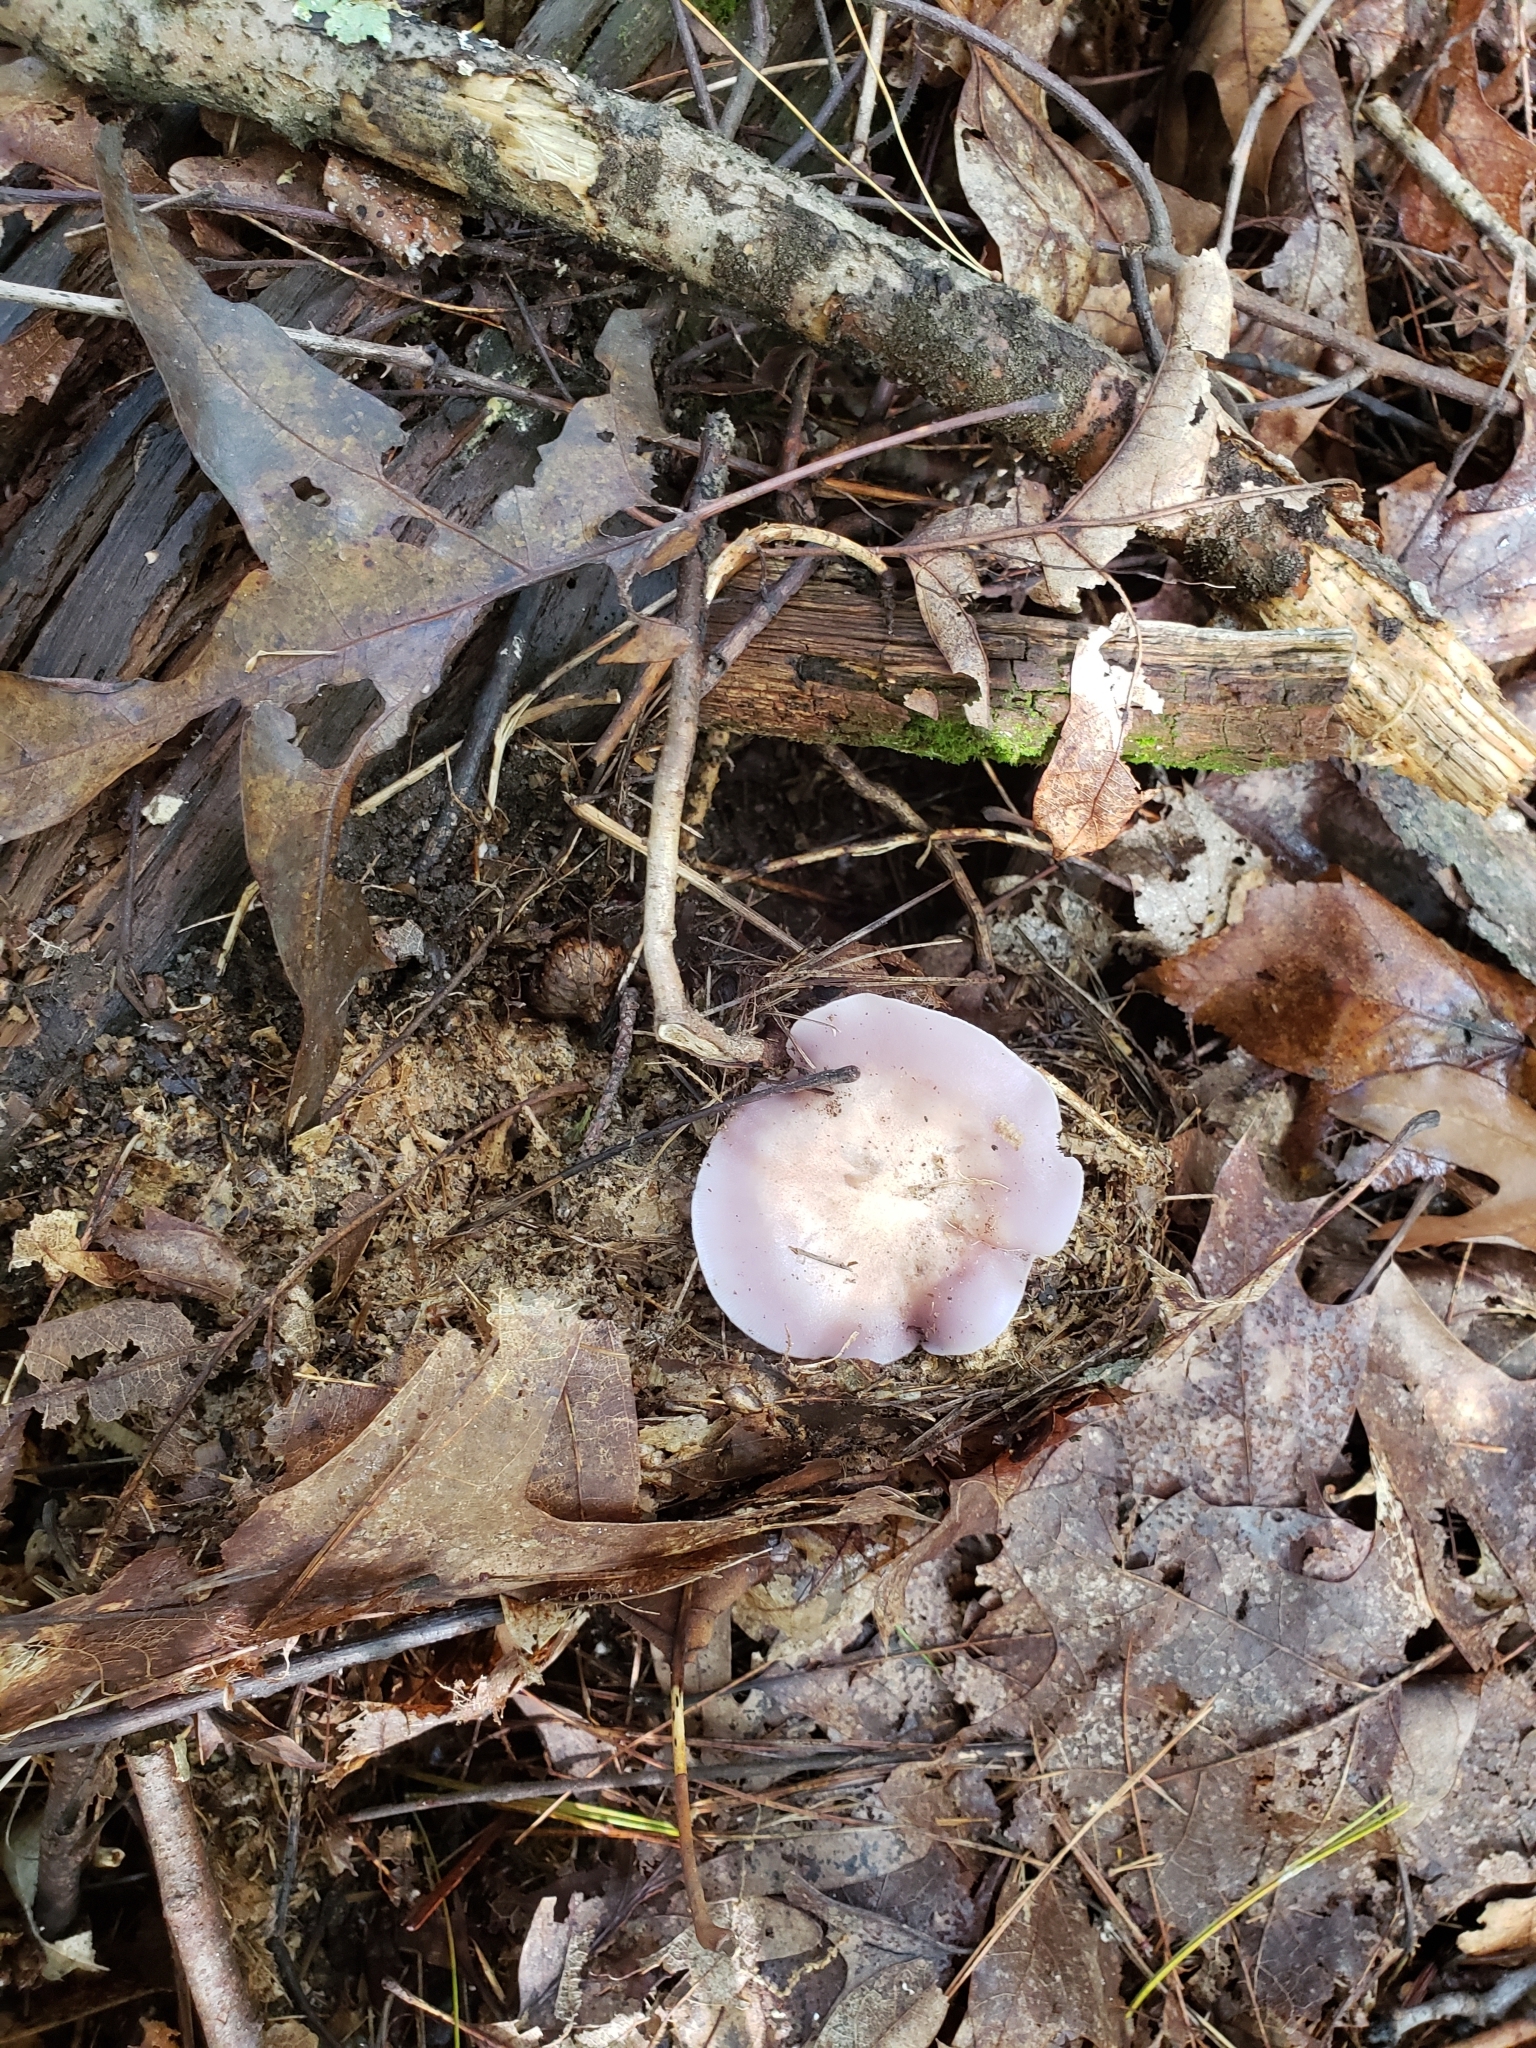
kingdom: Fungi
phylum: Basidiomycota
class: Agaricomycetes
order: Agaricales
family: Tricholomataceae
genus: Collybia
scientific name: Collybia
